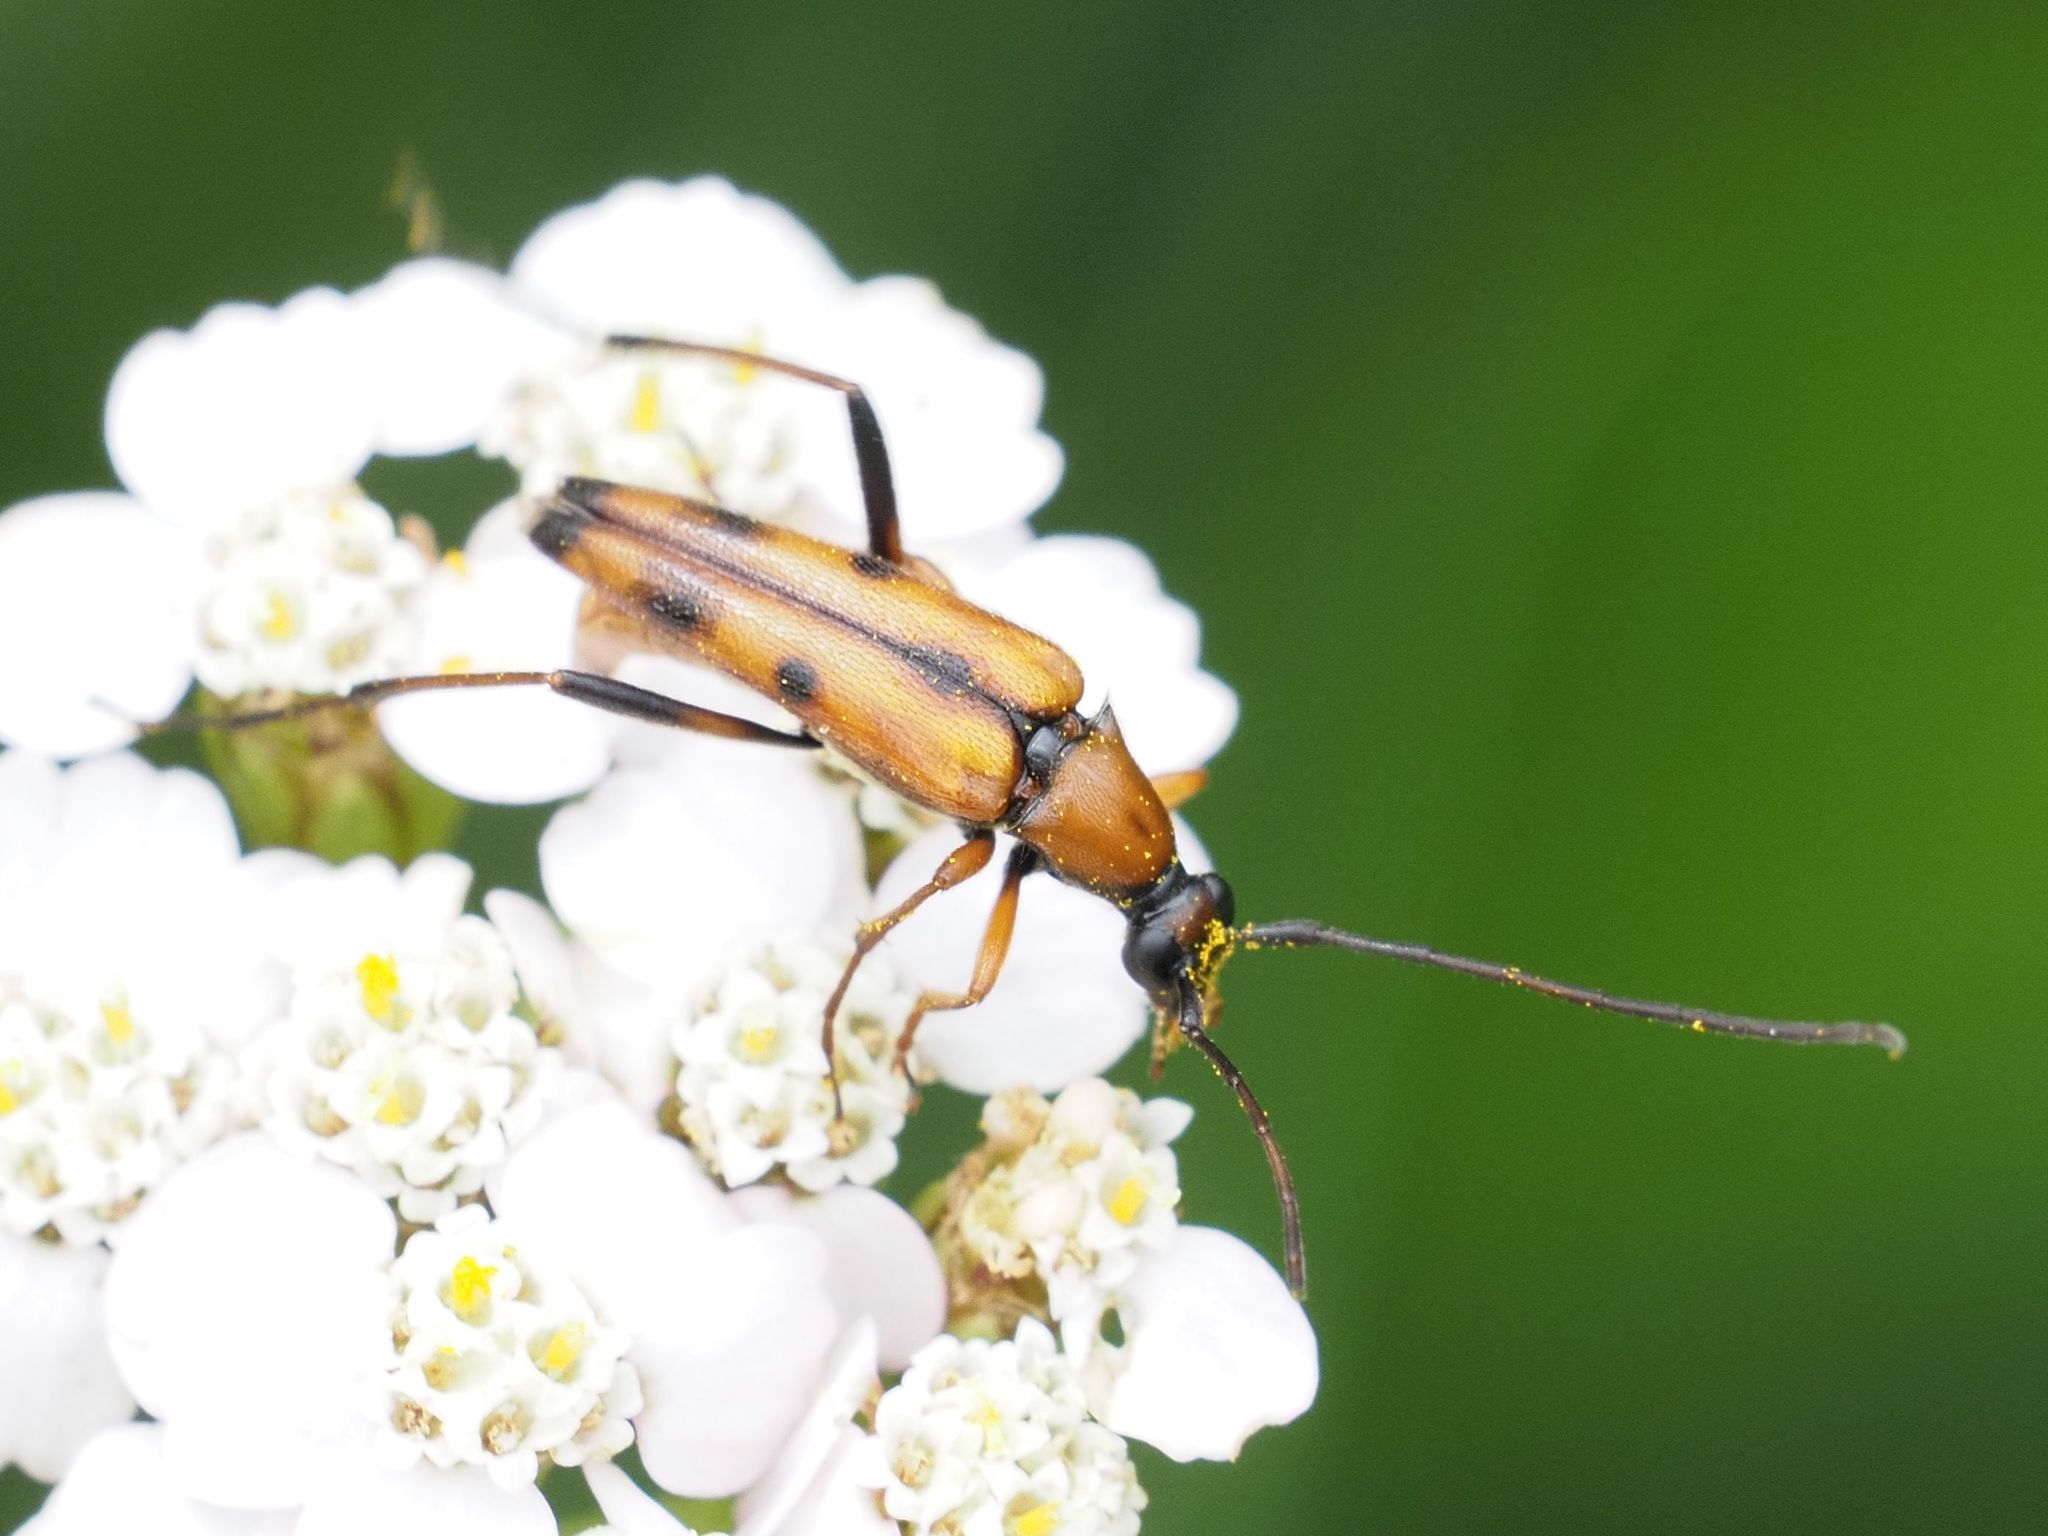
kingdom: Animalia
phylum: Arthropoda
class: Insecta
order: Coleoptera
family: Cerambycidae
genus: Stenurella
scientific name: Stenurella septempunctata
